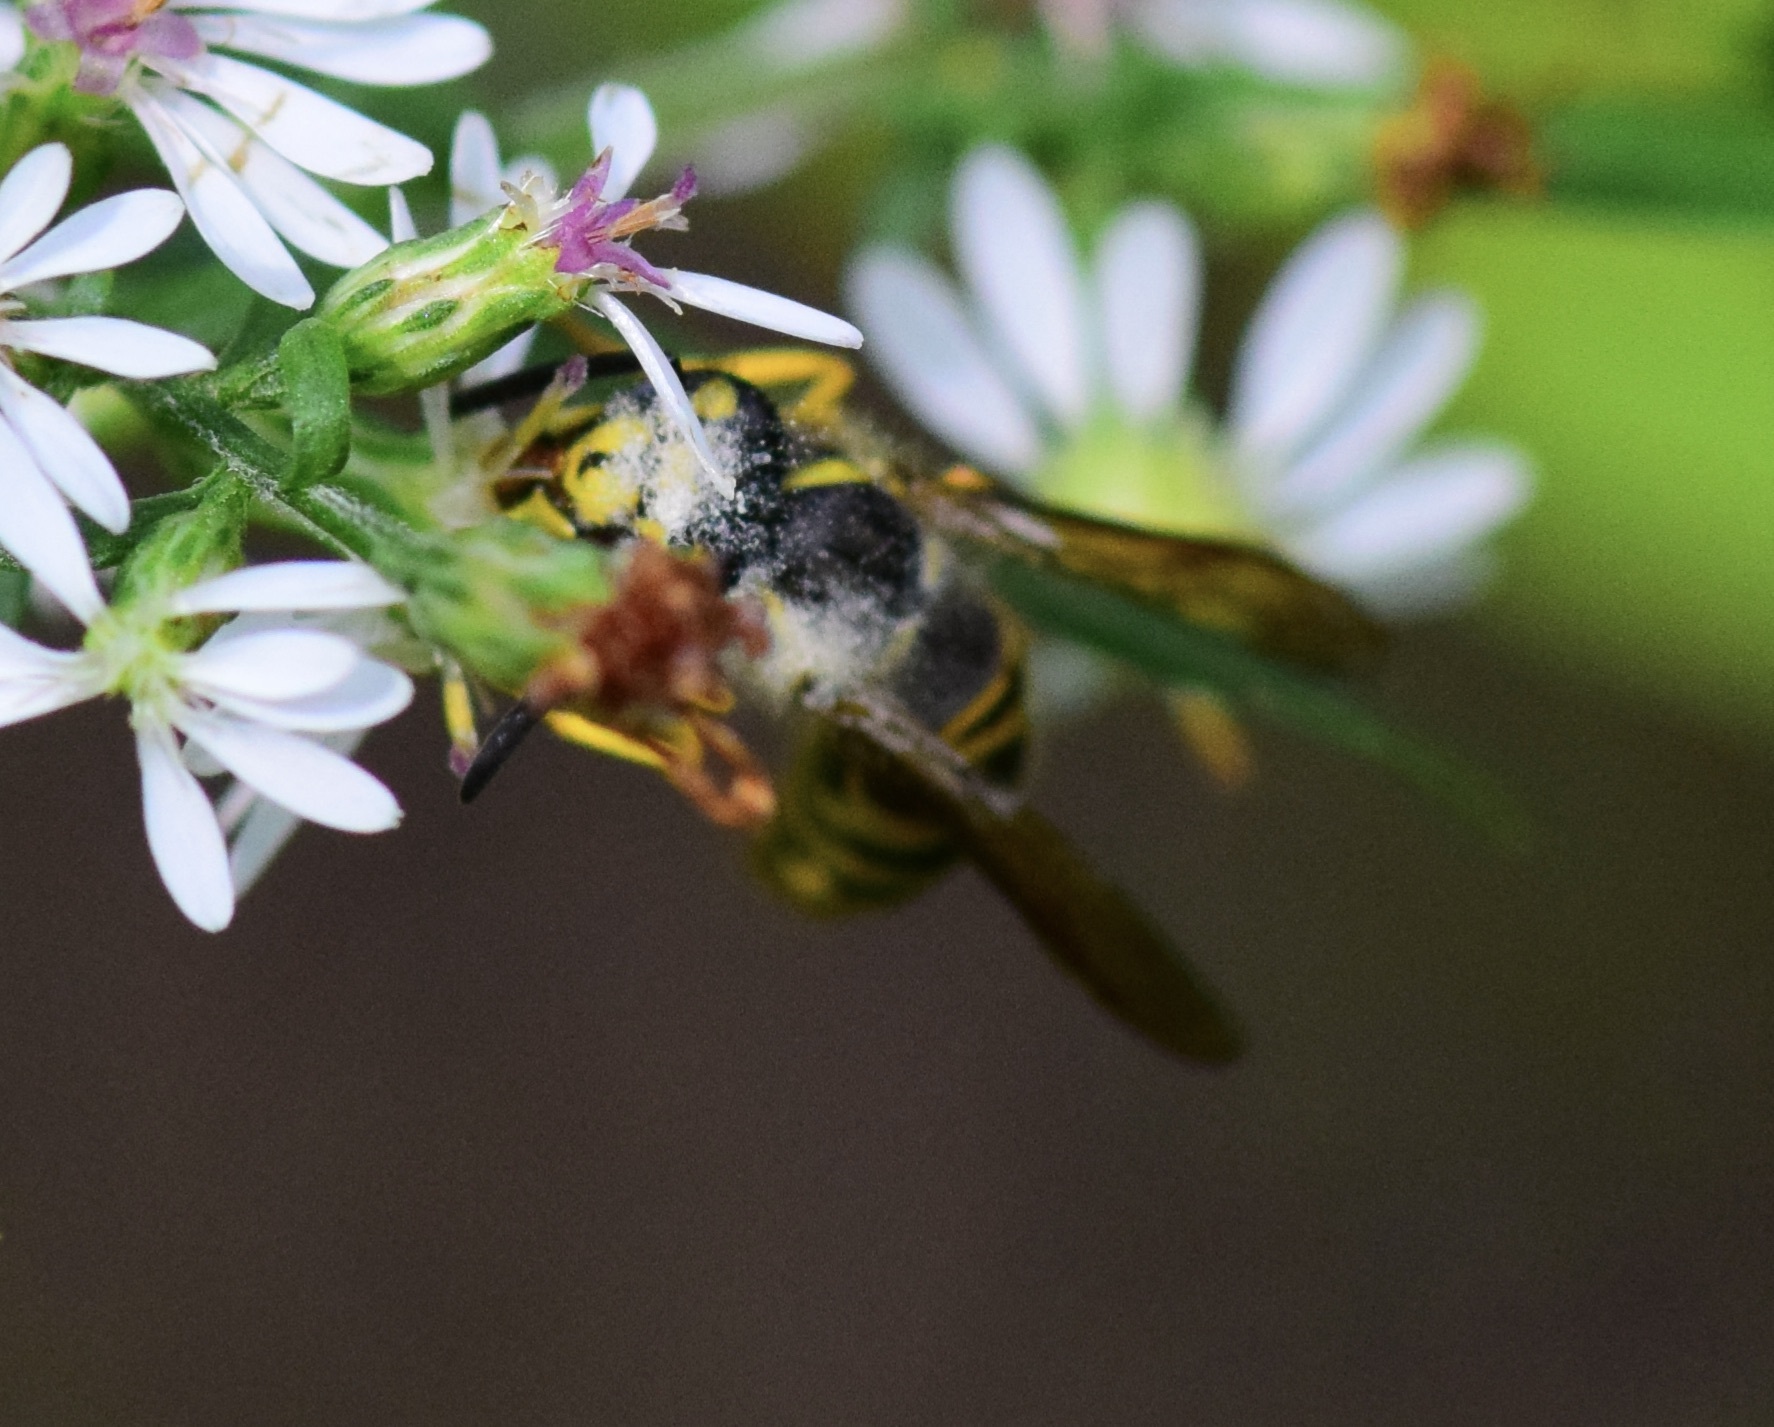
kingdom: Animalia
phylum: Arthropoda
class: Insecta
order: Hymenoptera
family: Vespidae
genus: Vespula
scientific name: Vespula maculifrons
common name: Eastern yellowjacket
